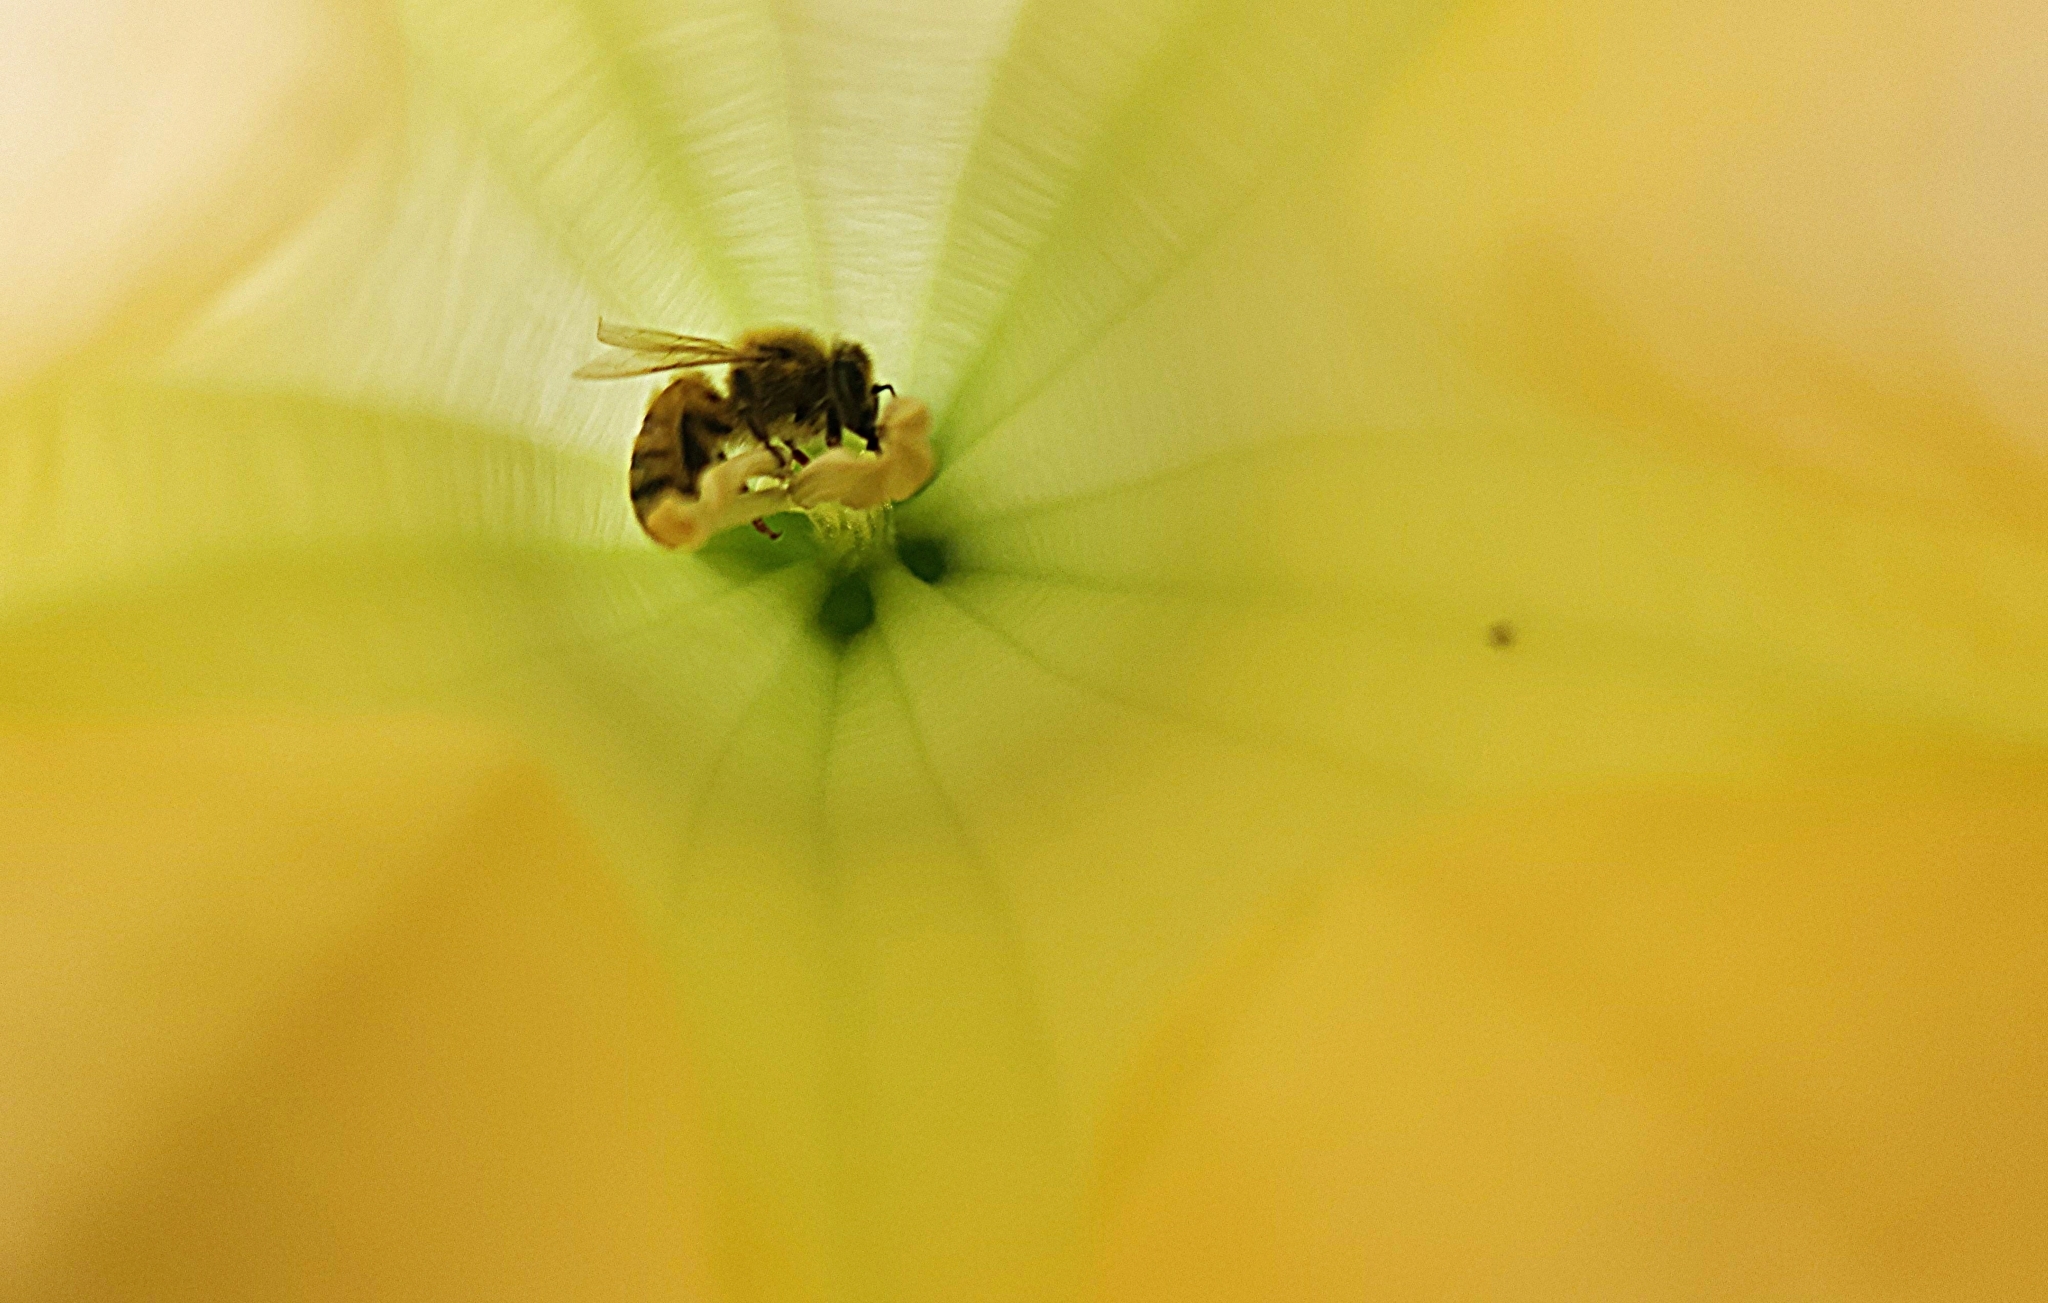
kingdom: Animalia
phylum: Arthropoda
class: Insecta
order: Hymenoptera
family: Apidae
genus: Apis
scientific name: Apis mellifera
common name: Honey bee
